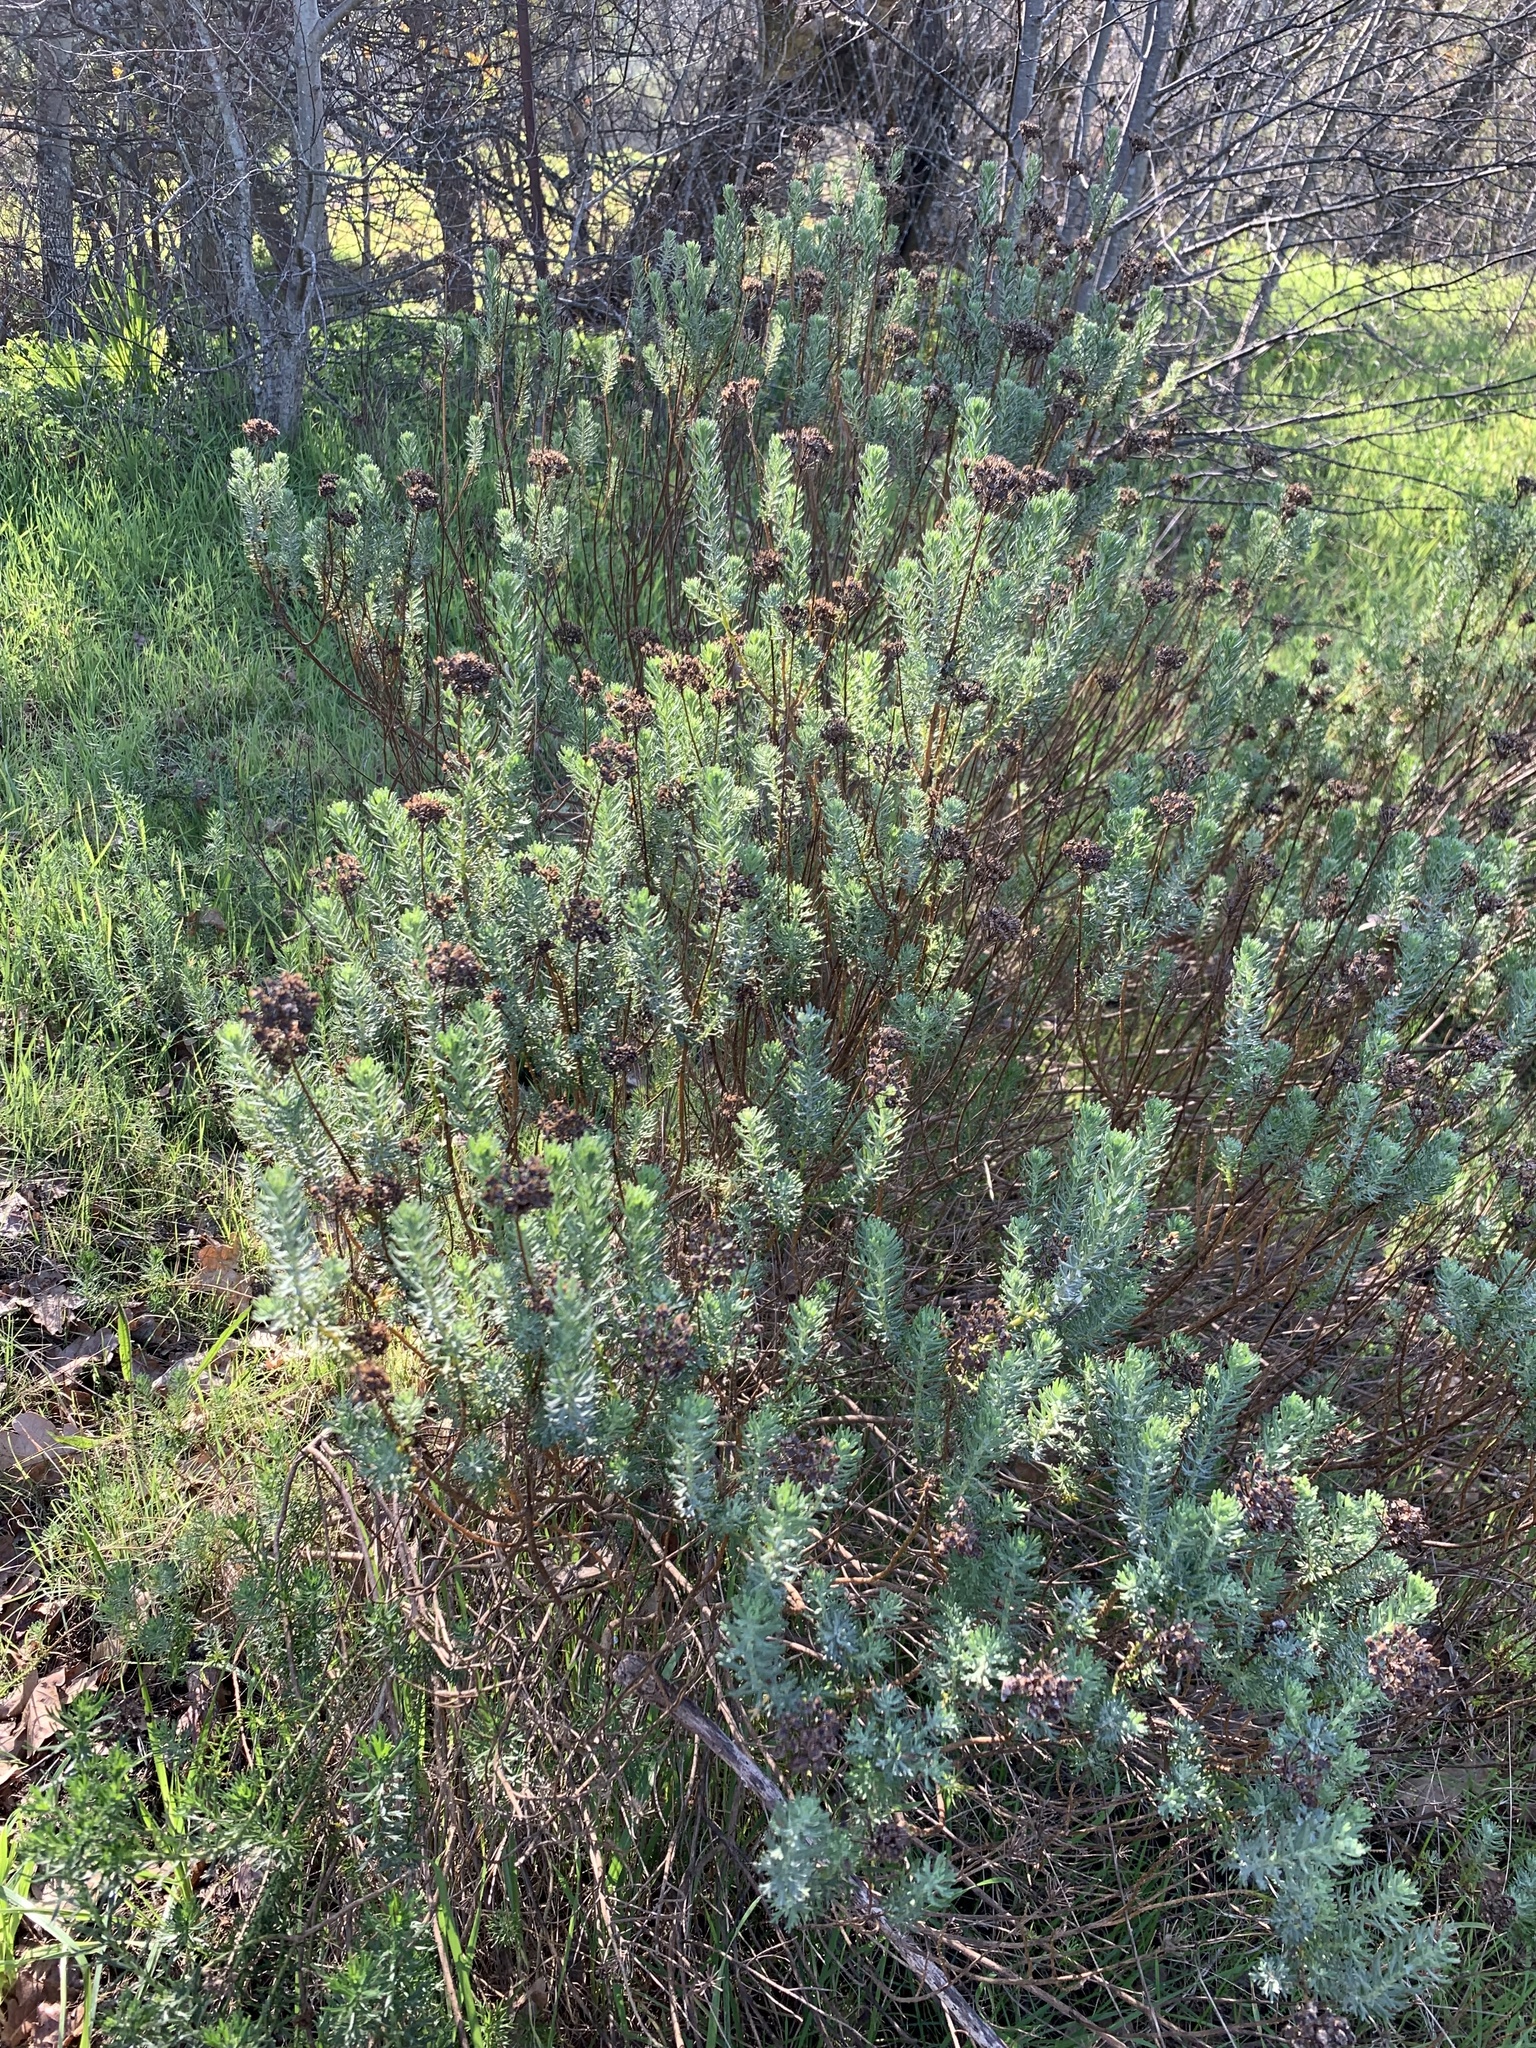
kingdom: Plantae
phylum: Tracheophyta
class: Magnoliopsida
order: Asterales
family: Asteraceae
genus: Athanasia
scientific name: Athanasia trifurcata
